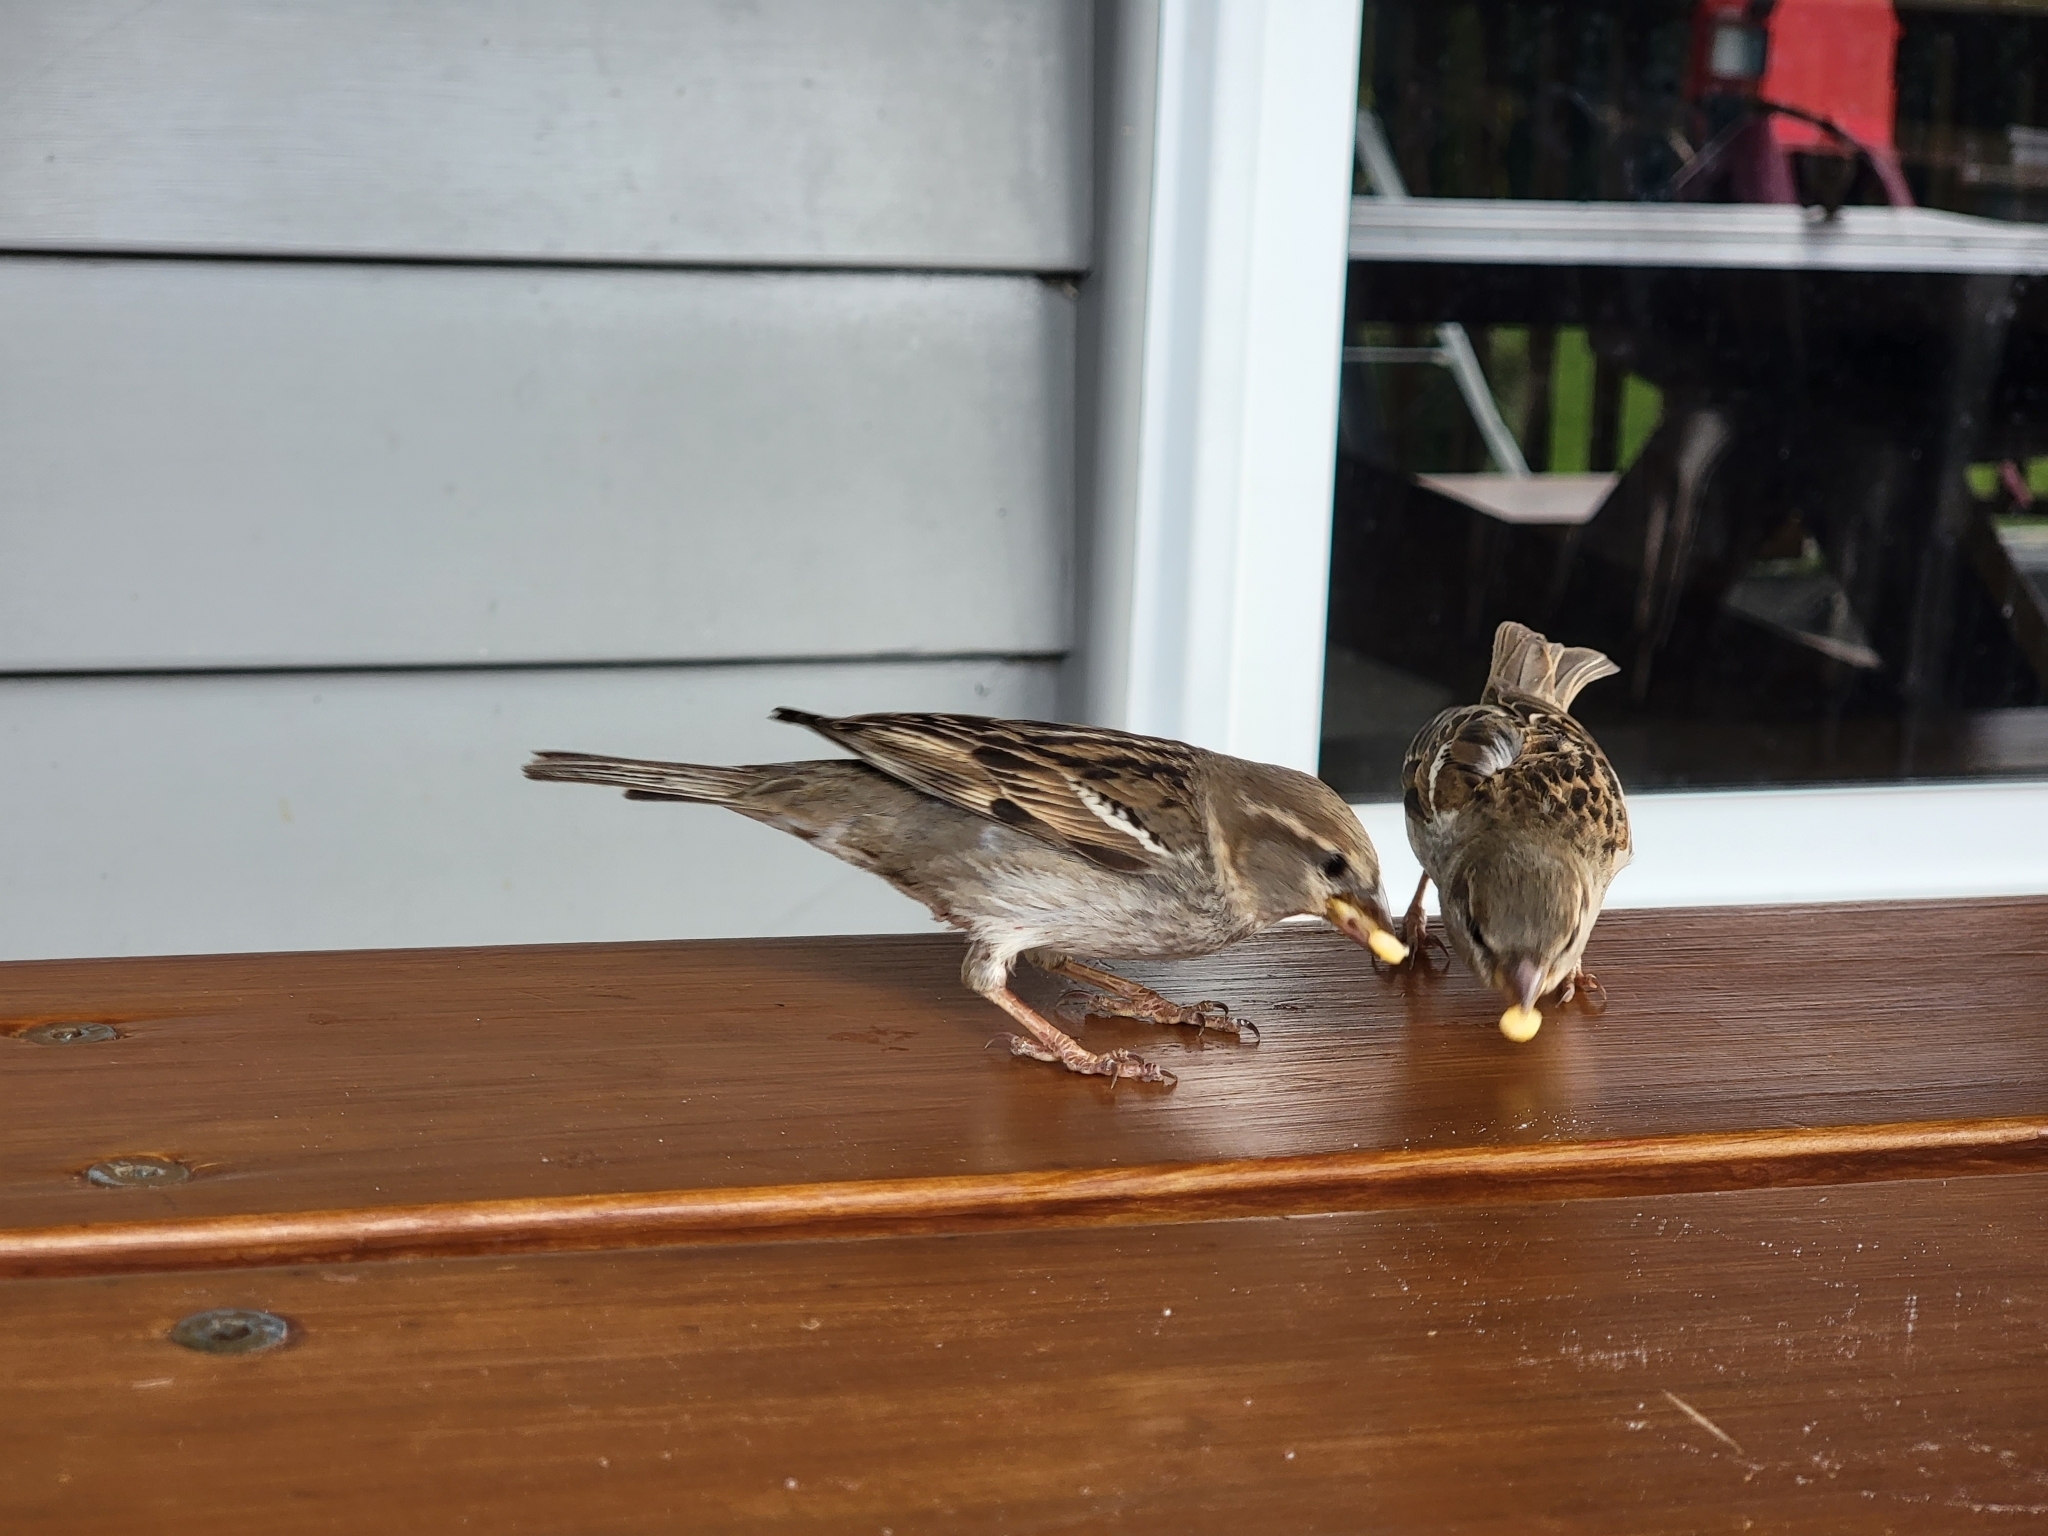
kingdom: Animalia
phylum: Chordata
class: Aves
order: Passeriformes
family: Passeridae
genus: Passer
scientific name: Passer domesticus
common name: House sparrow
